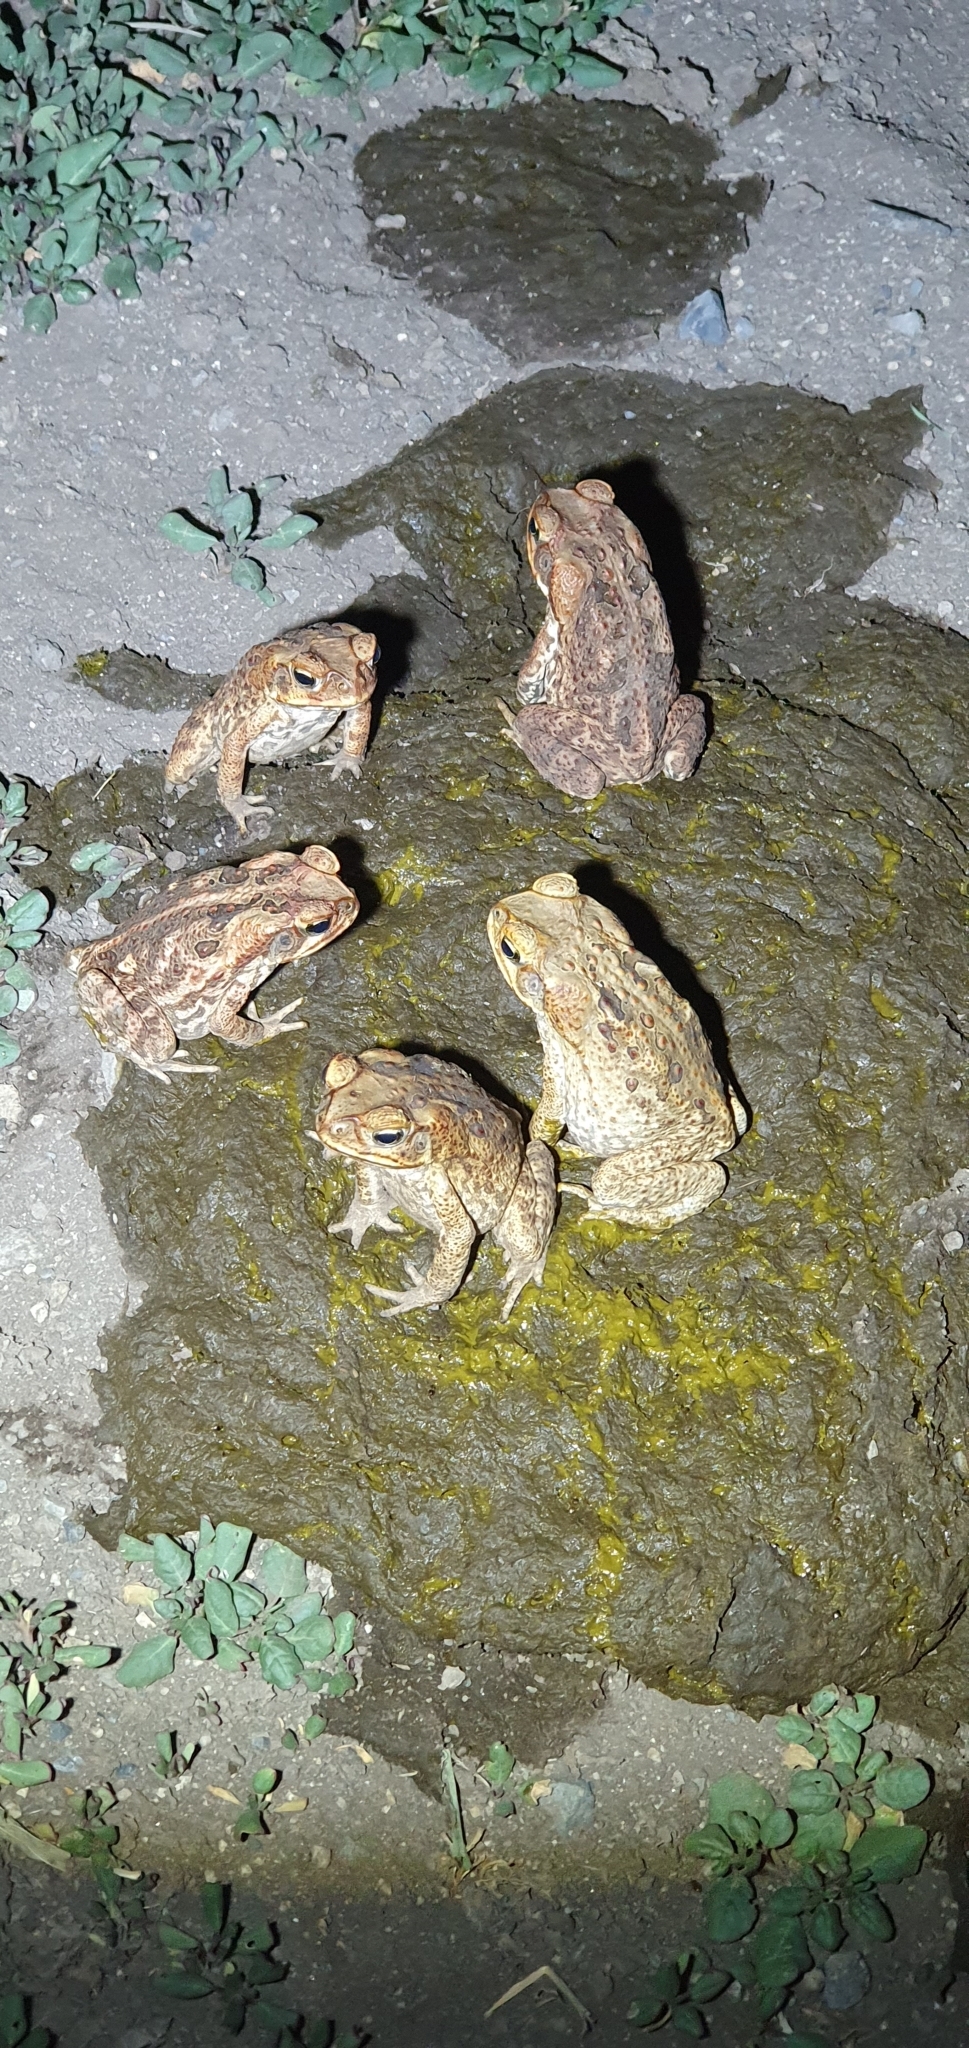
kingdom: Animalia
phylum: Chordata
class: Amphibia
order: Anura
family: Bufonidae
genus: Rhinella
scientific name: Rhinella marina
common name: Cane toad
